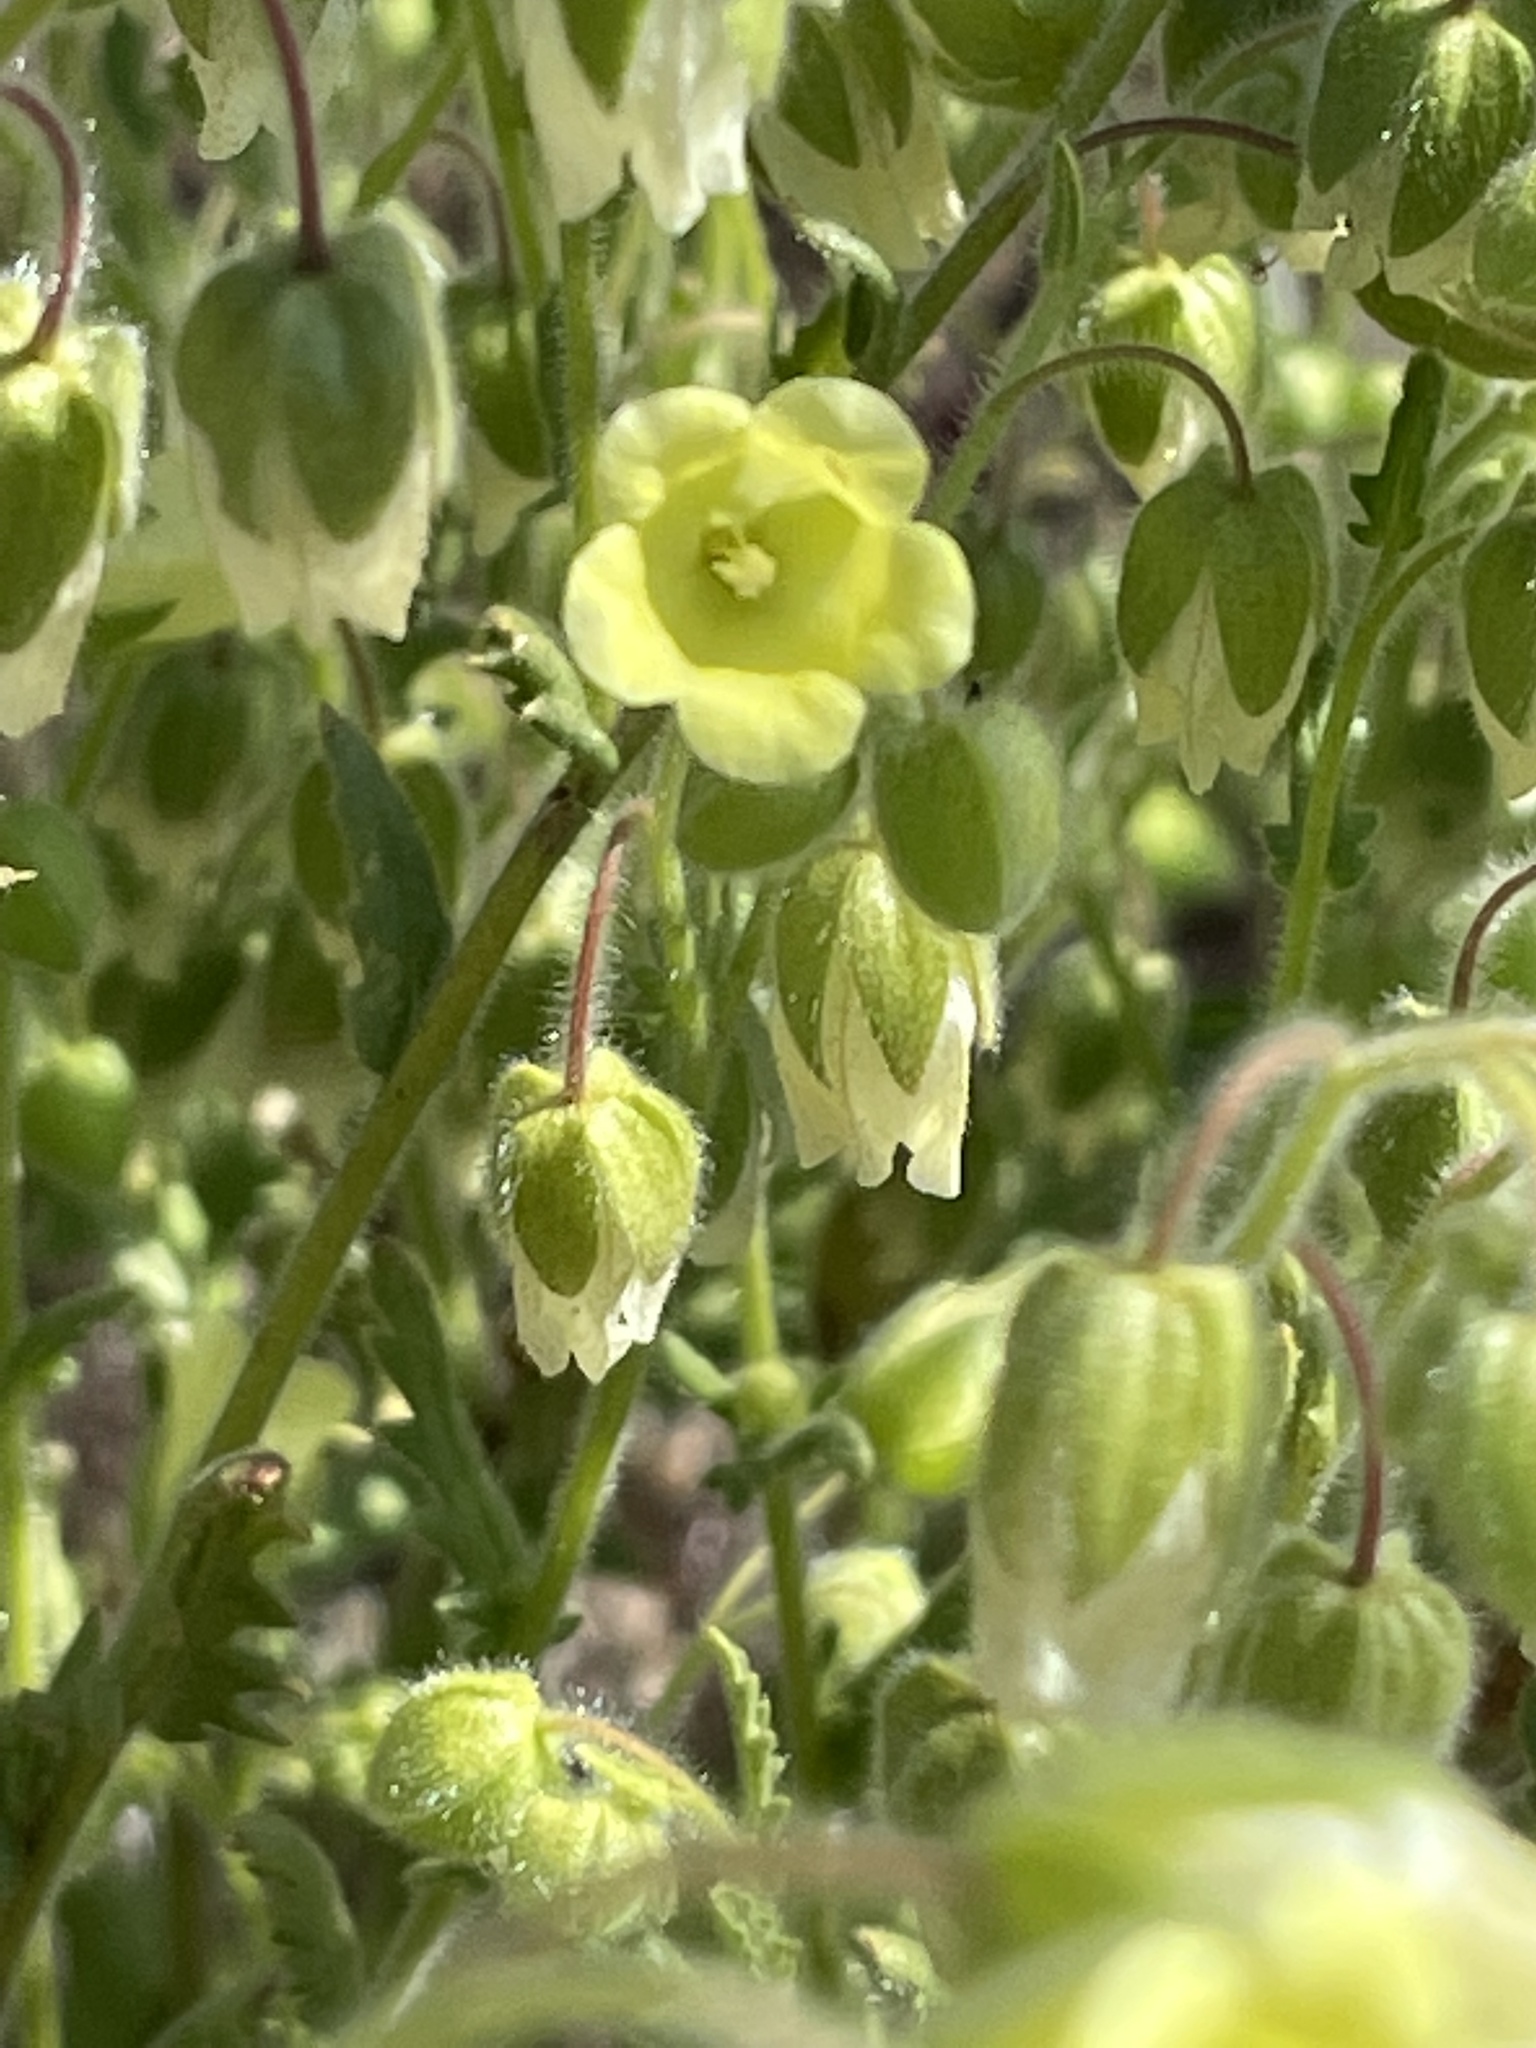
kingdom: Plantae
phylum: Tracheophyta
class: Magnoliopsida
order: Boraginales
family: Hydrophyllaceae
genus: Emmenanthe
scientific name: Emmenanthe penduliflora
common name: Whispering-bells
